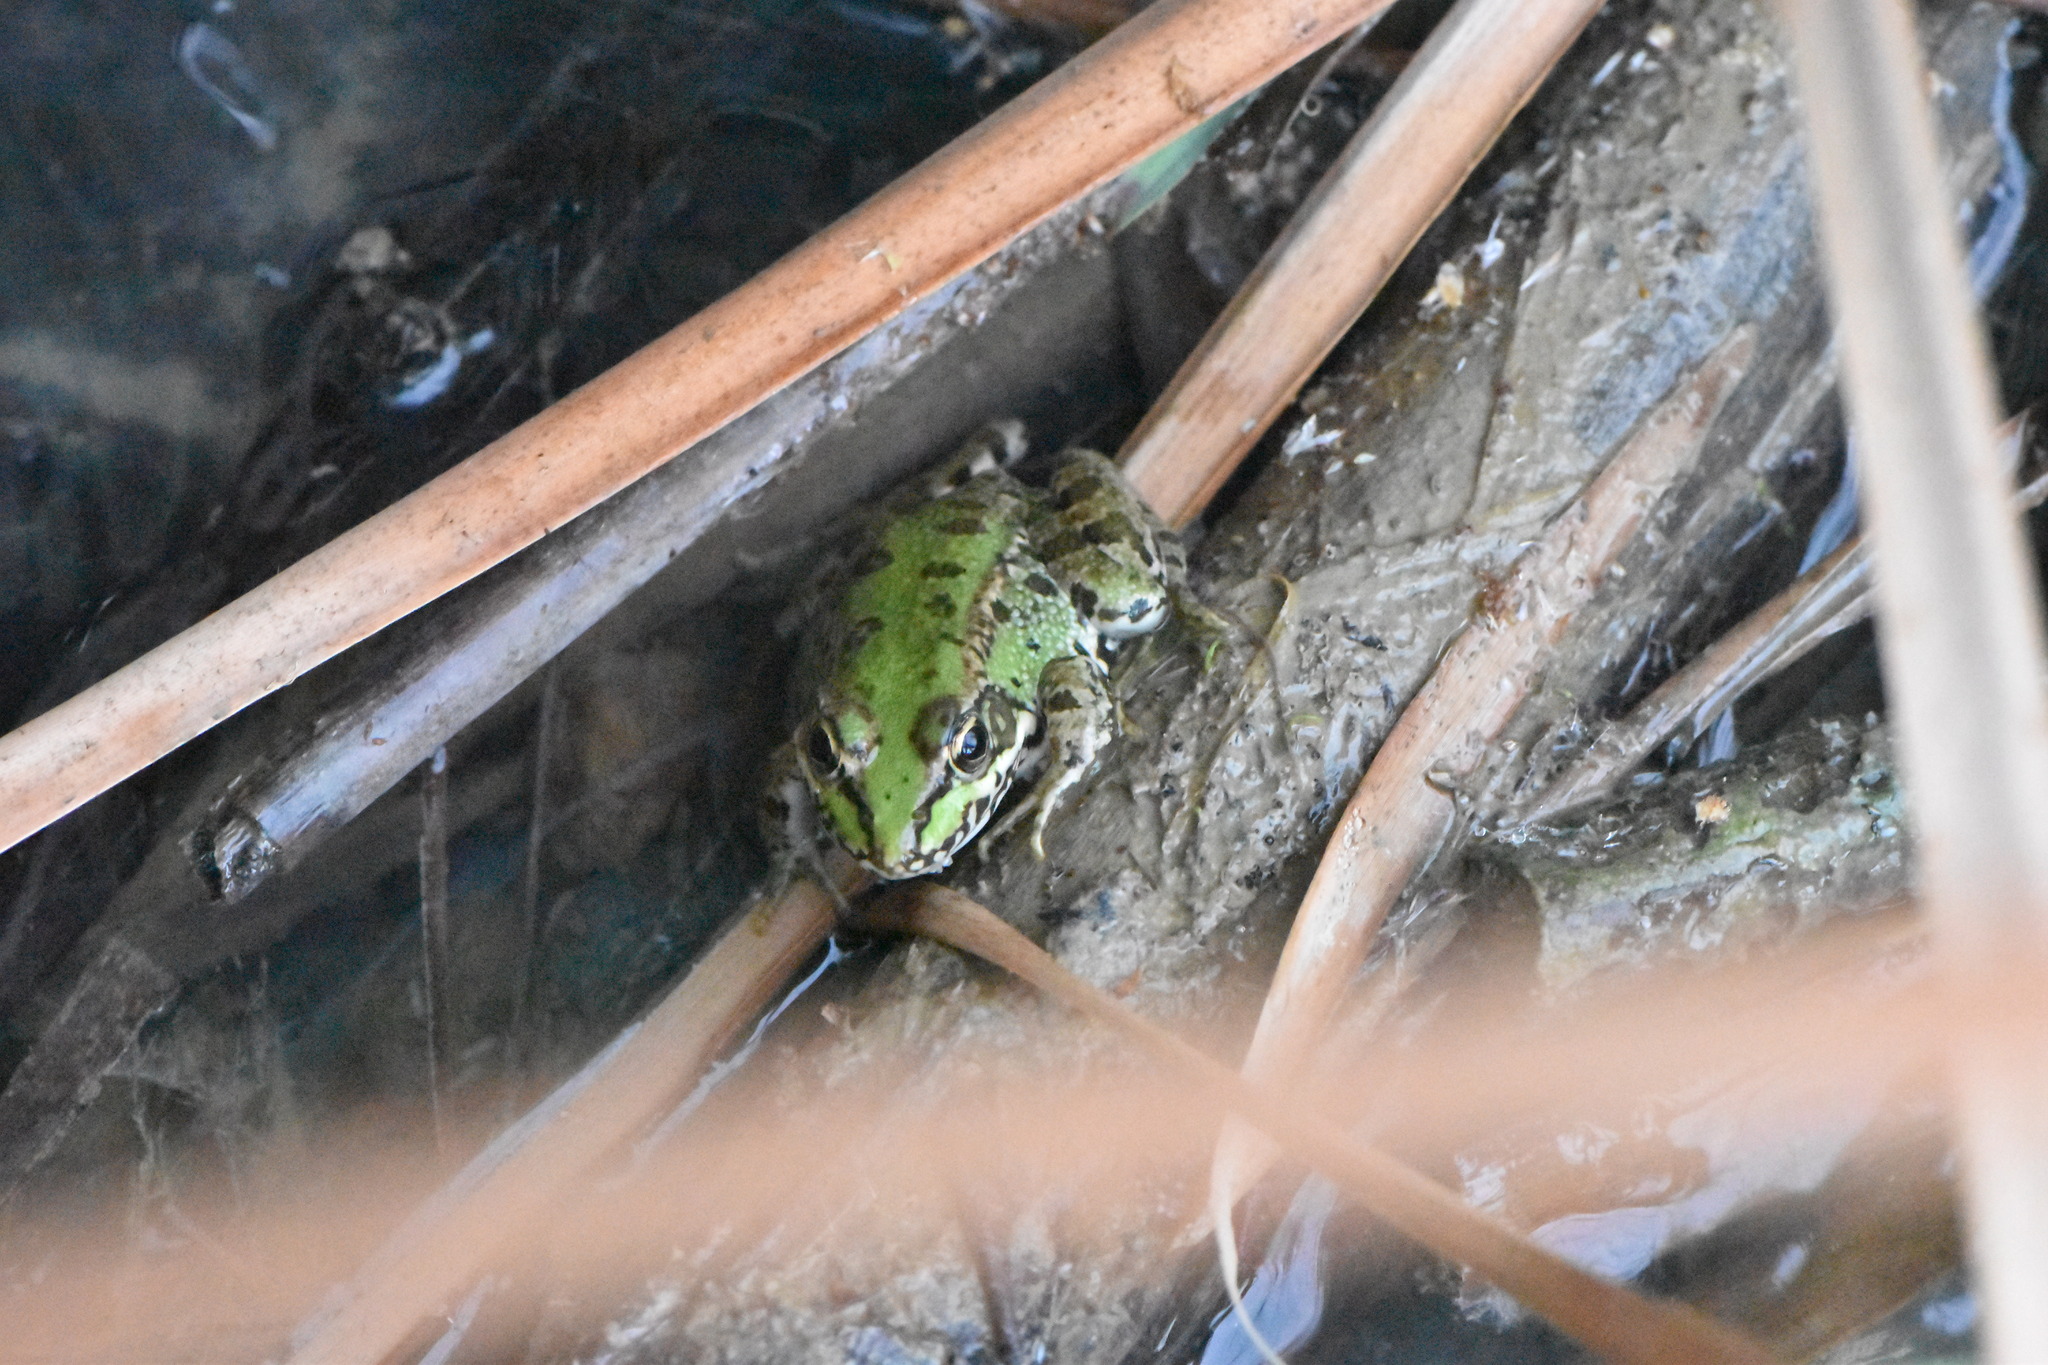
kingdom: Animalia
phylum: Chordata
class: Amphibia
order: Anura
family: Ranidae
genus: Pelophylax
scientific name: Pelophylax perezi
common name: Perez's frog
